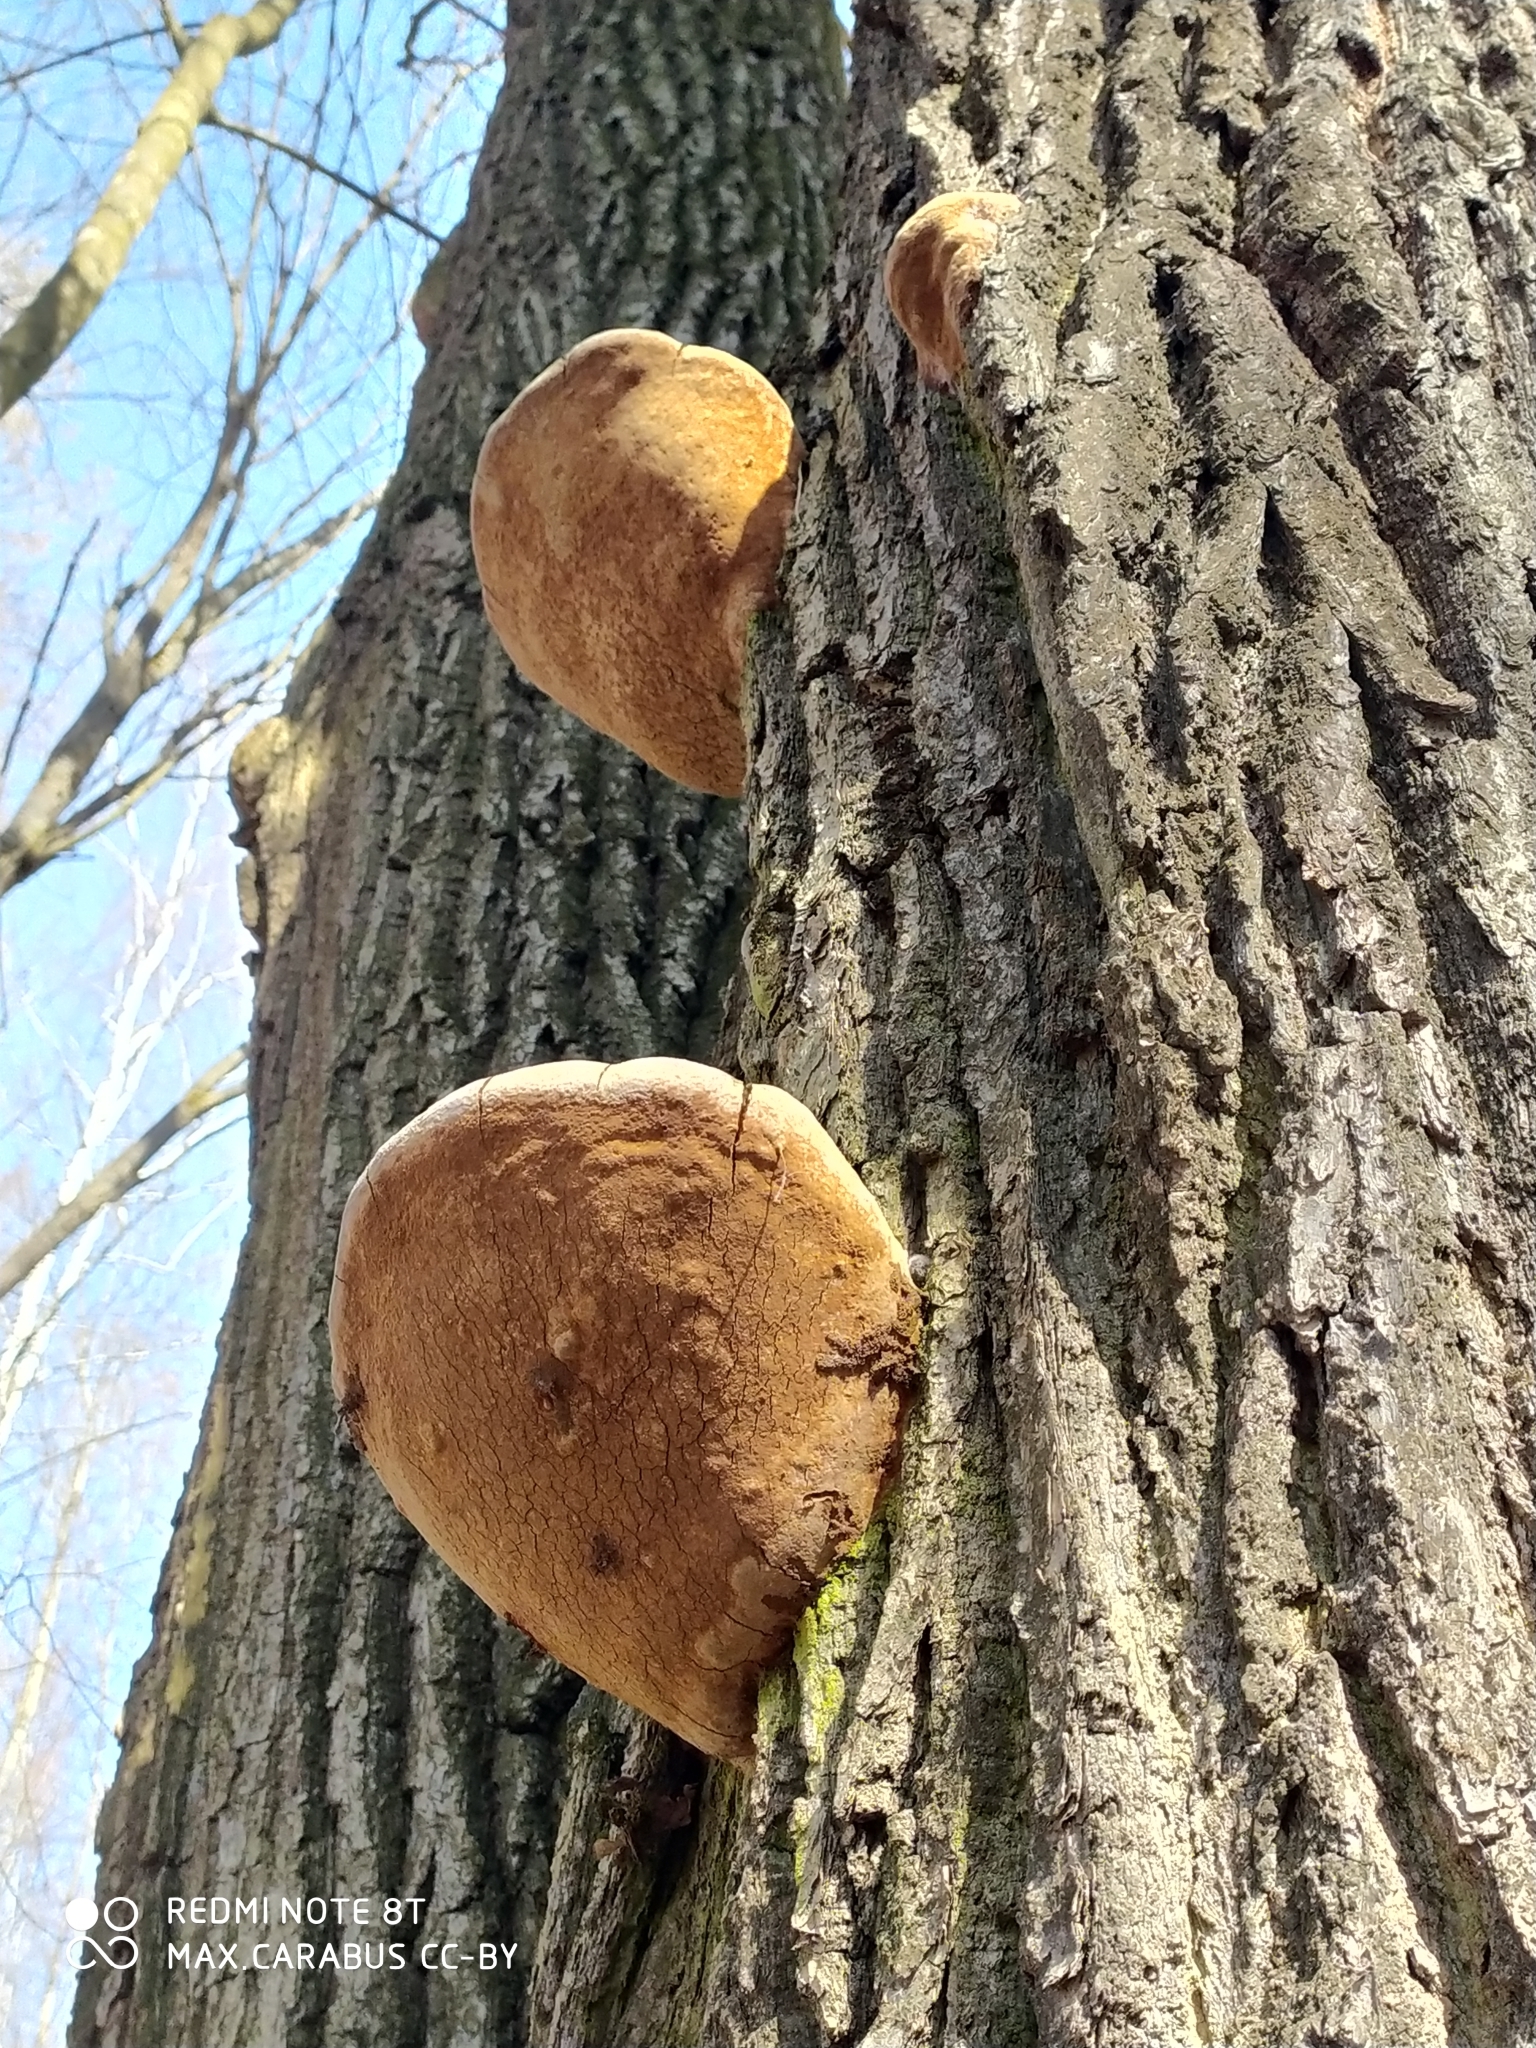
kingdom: Fungi
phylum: Basidiomycota
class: Agaricomycetes
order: Hymenochaetales
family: Hymenochaetaceae
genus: Fomitiporia
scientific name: Fomitiporia robusta
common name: Robust bracket
